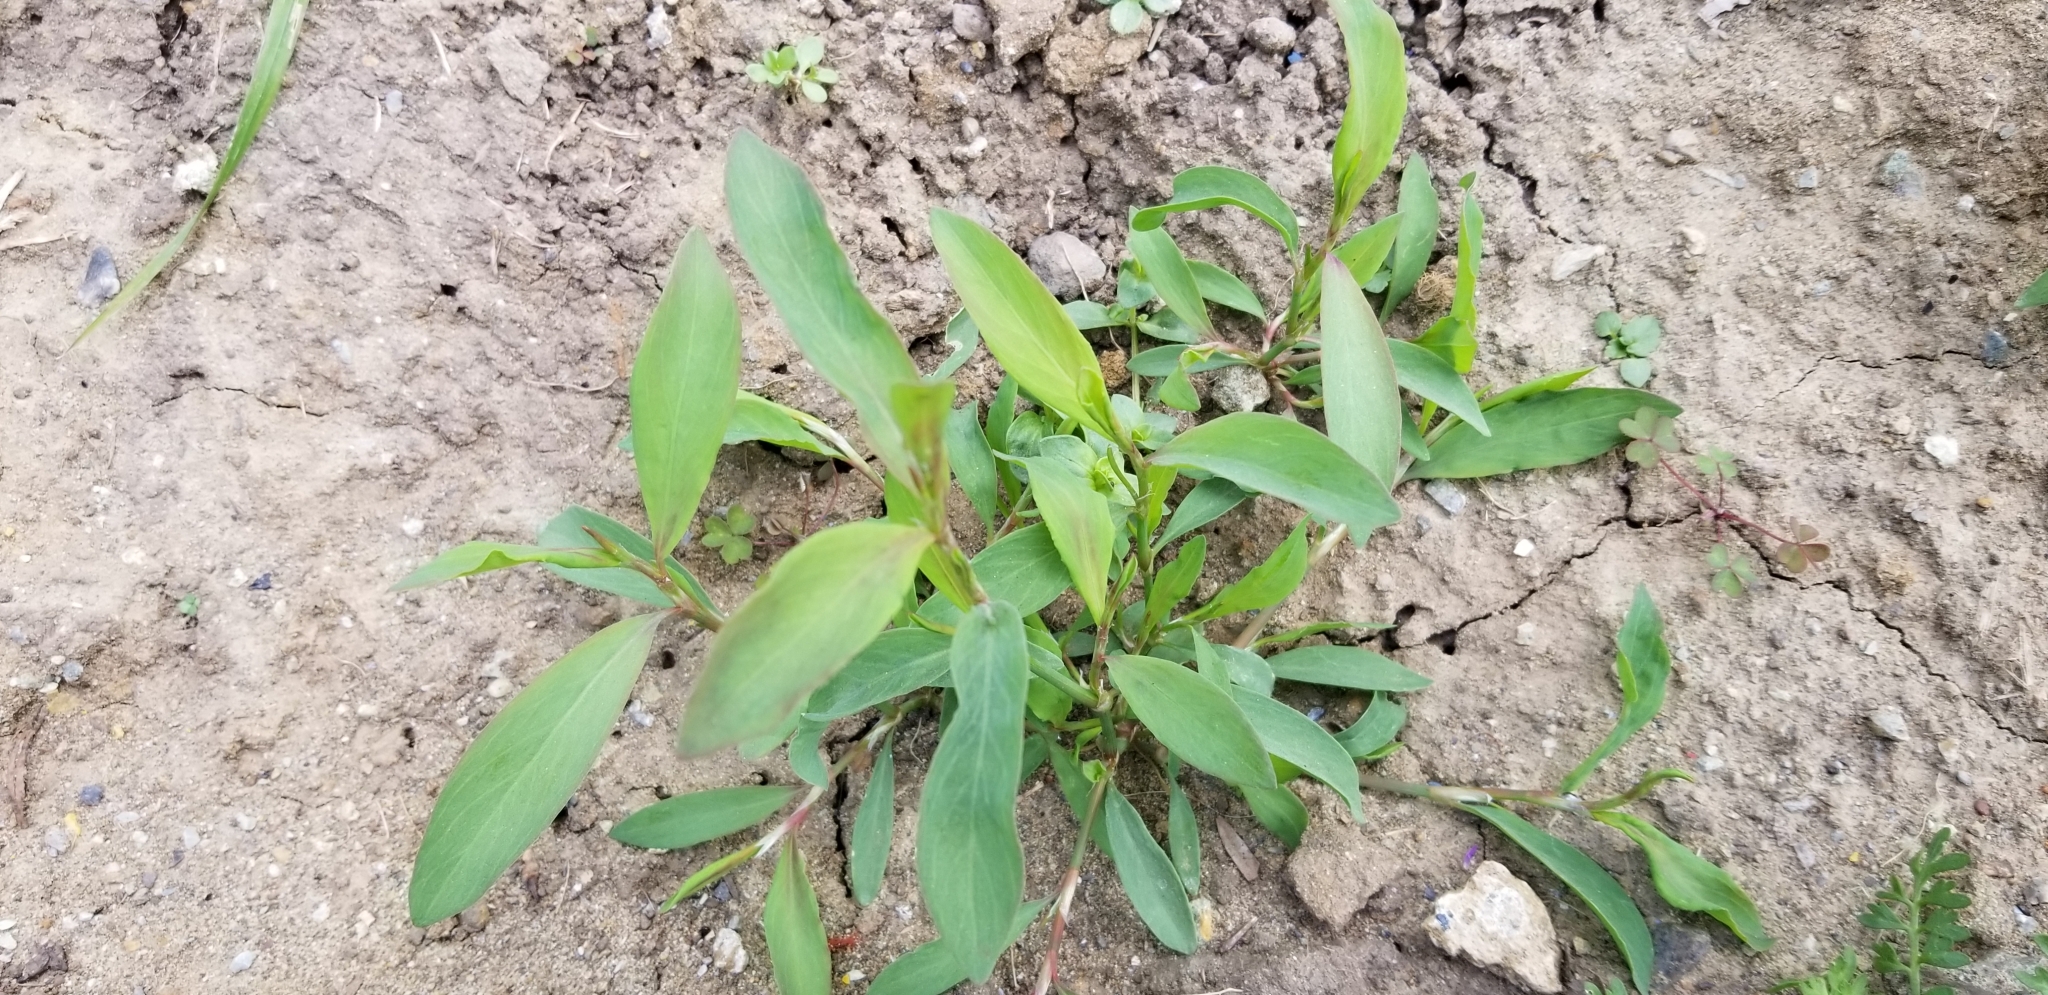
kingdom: Plantae
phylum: Tracheophyta
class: Magnoliopsida
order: Caryophyllales
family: Polygonaceae
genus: Polygonum
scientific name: Polygonum aviculare
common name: Prostrate knotweed
